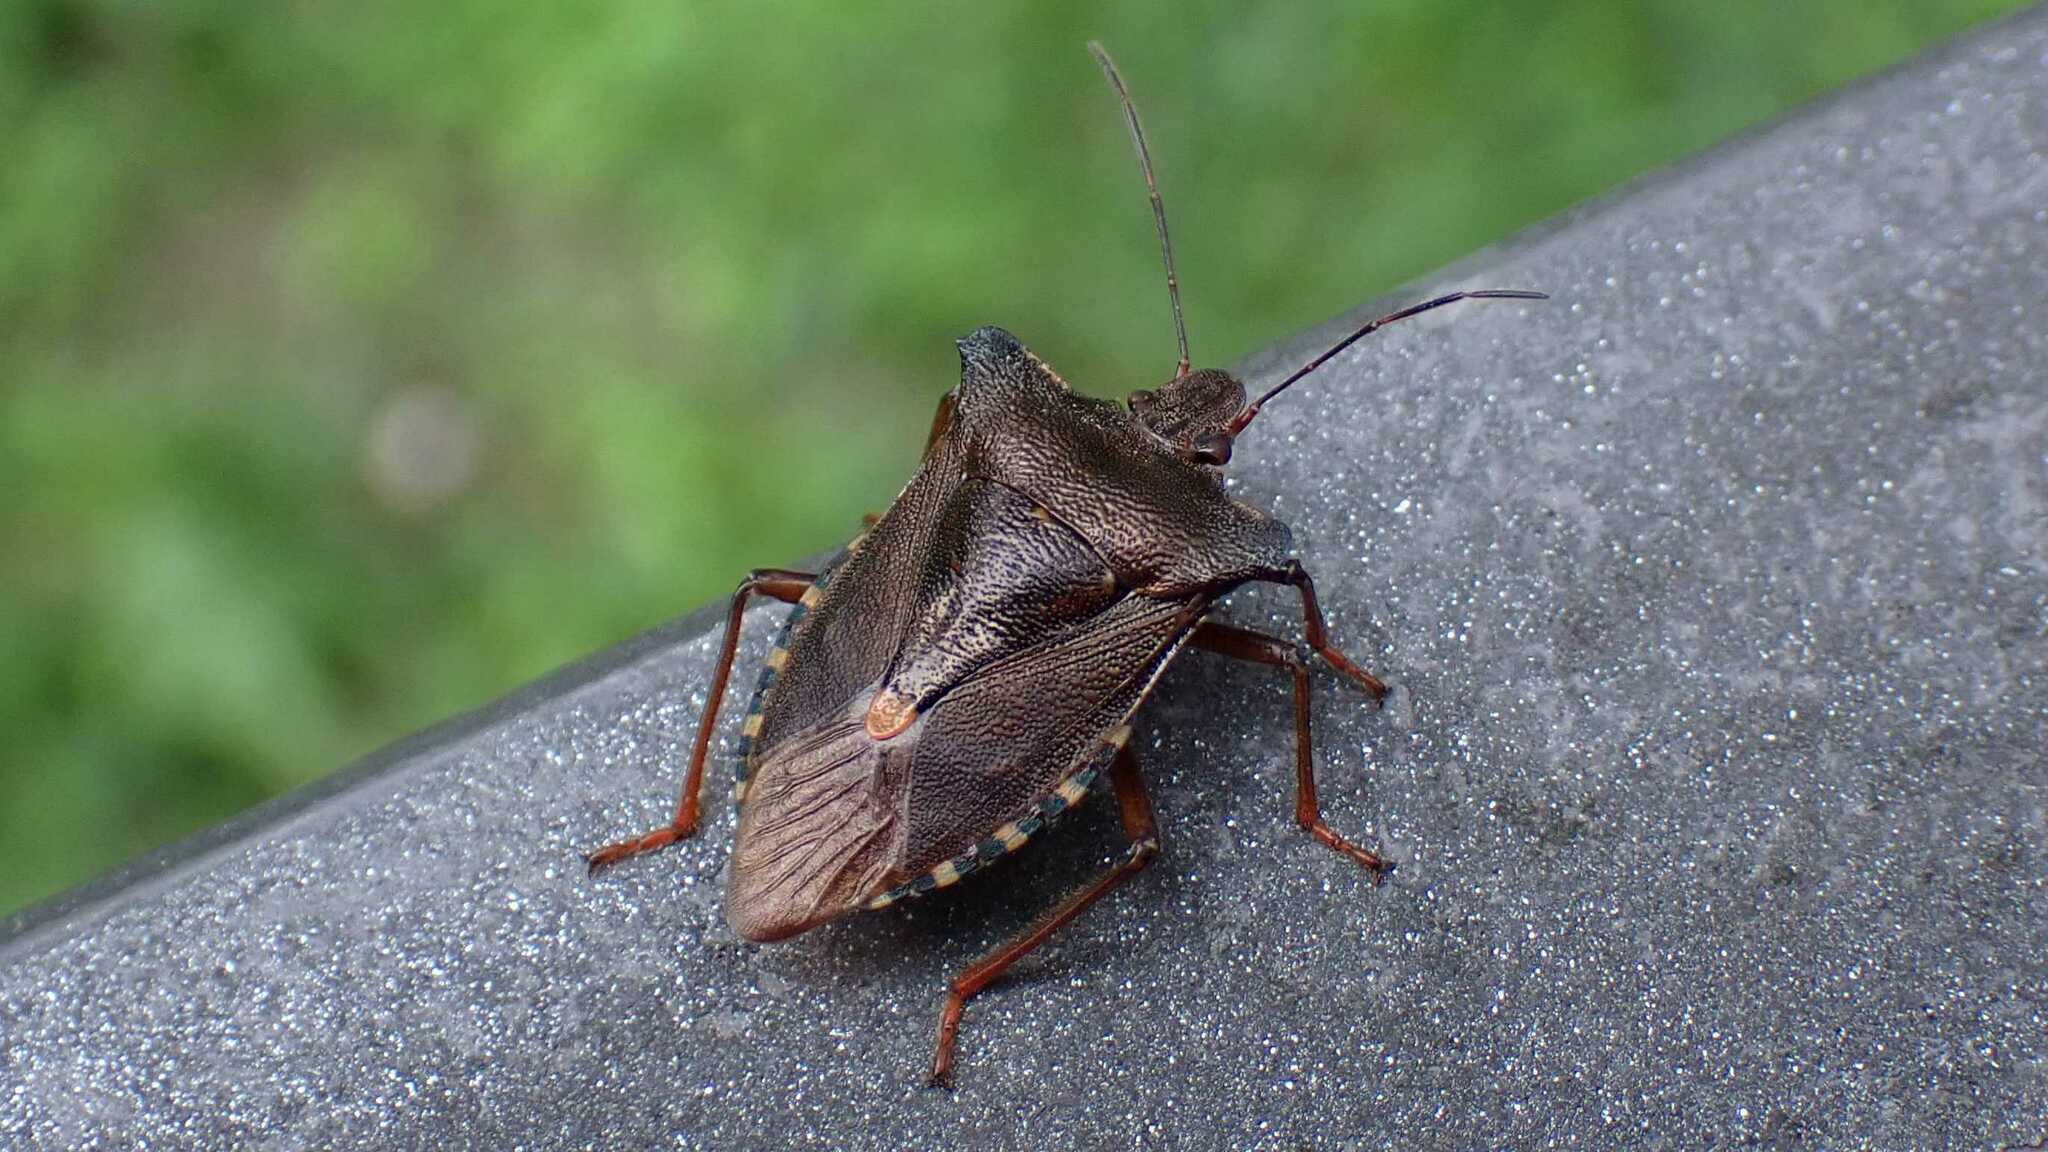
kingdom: Animalia
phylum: Arthropoda
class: Insecta
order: Hemiptera
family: Pentatomidae
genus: Pentatoma
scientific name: Pentatoma rufipes
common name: Forest bug
